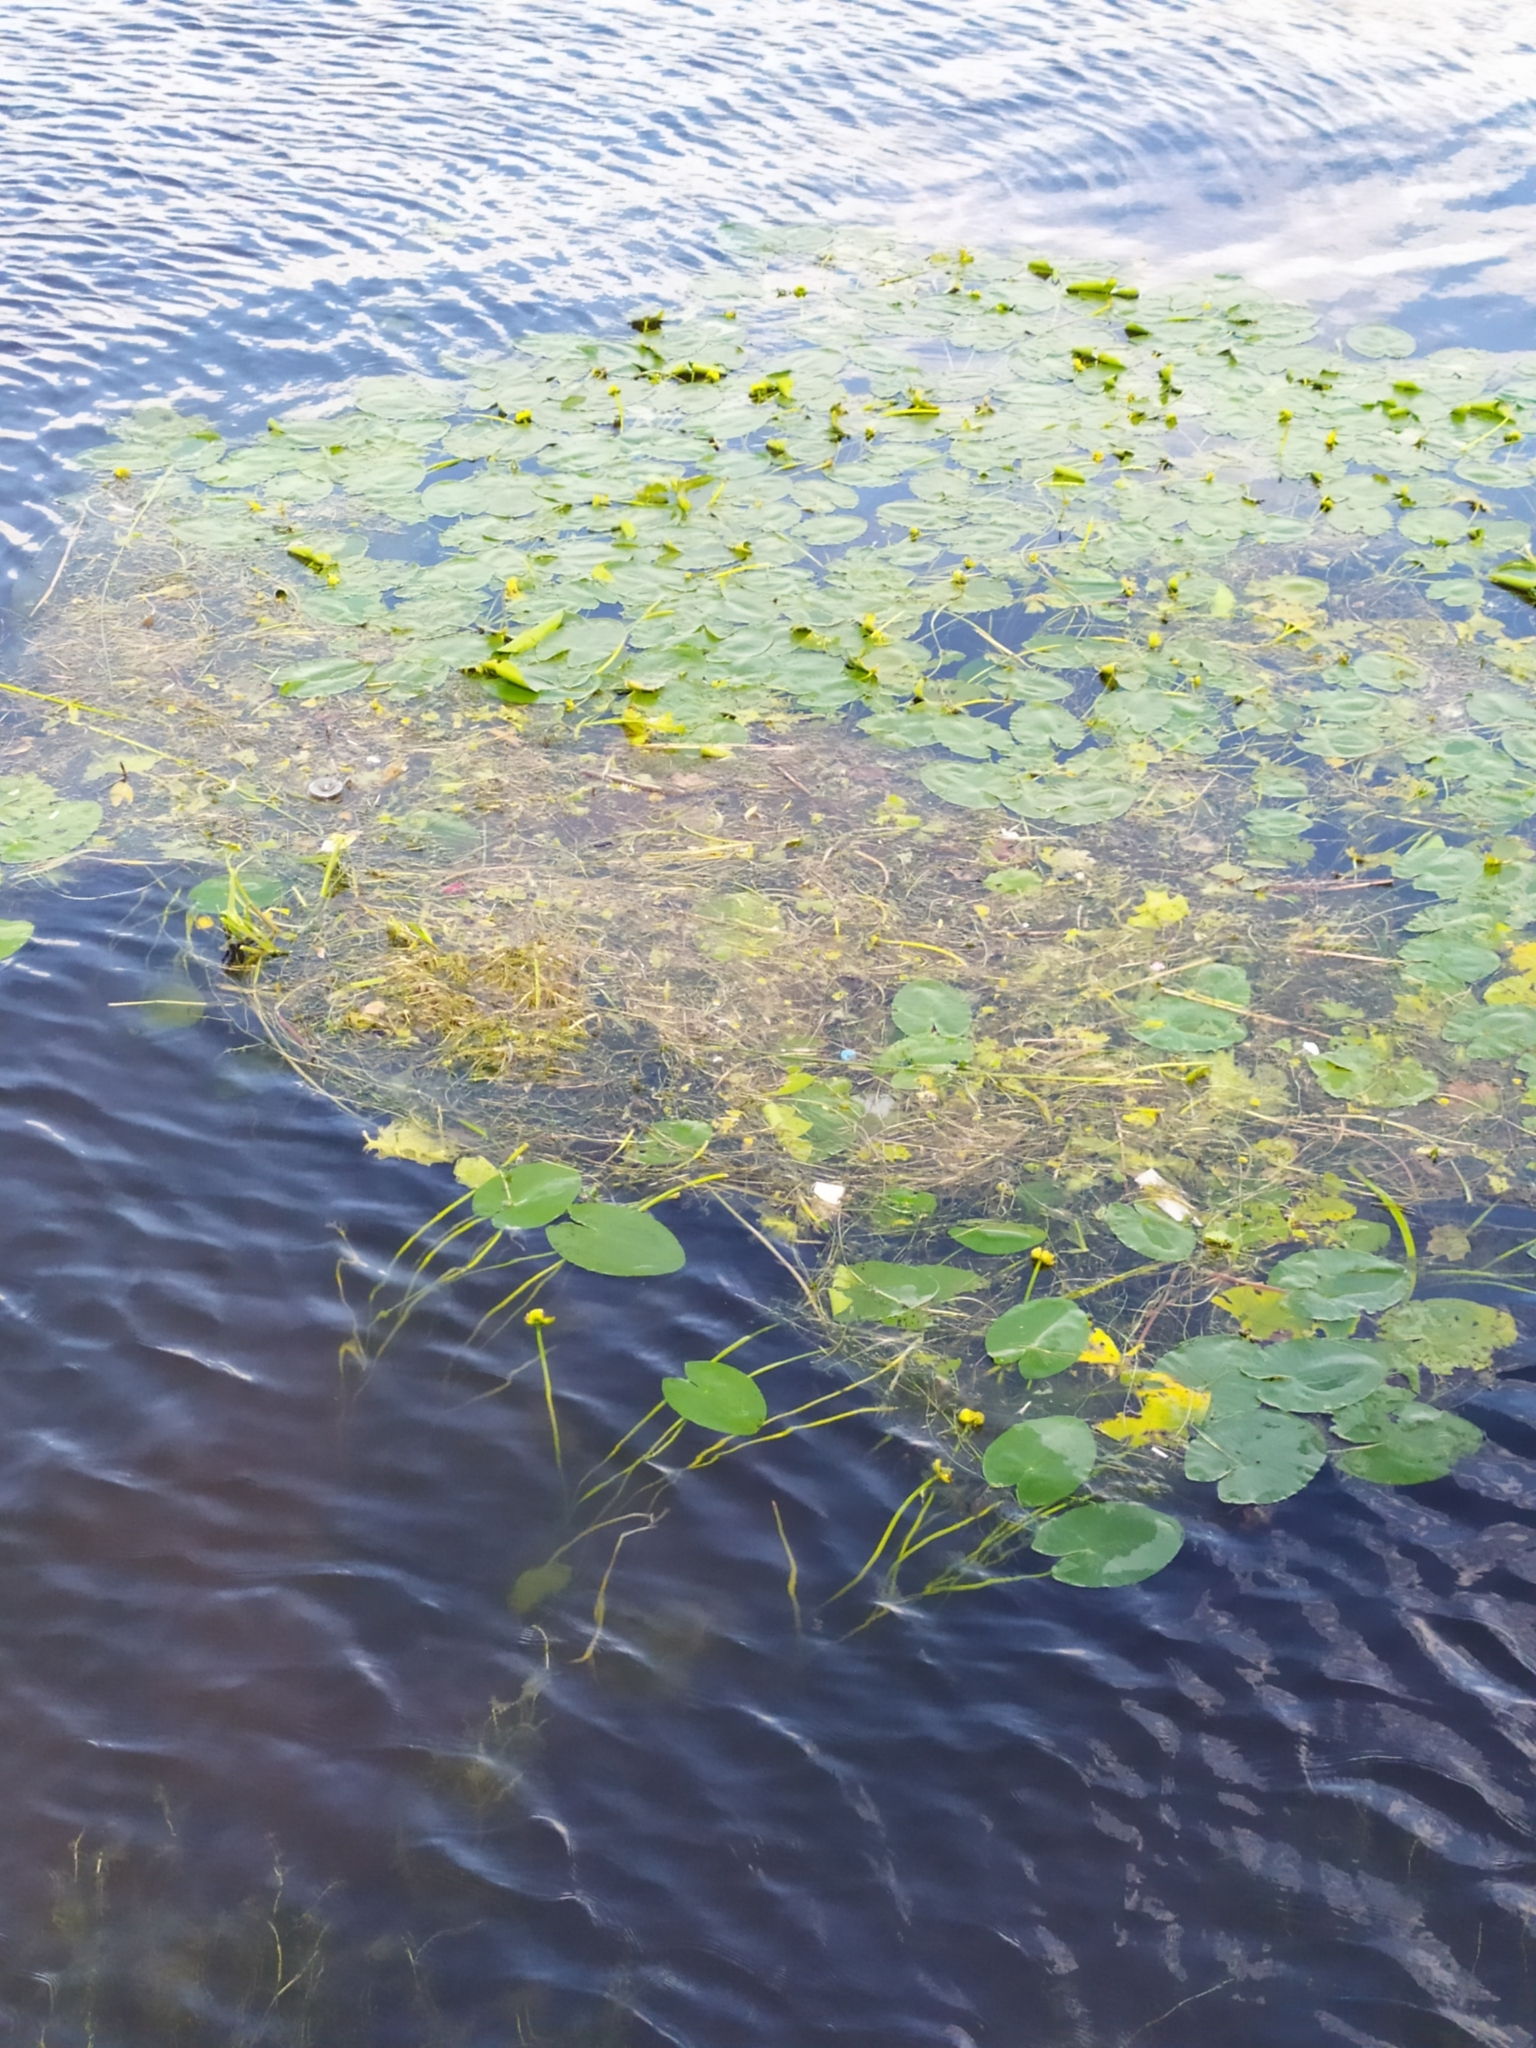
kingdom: Plantae
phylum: Tracheophyta
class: Magnoliopsida
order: Nymphaeales
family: Nymphaeaceae
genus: Nuphar
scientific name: Nuphar lutea
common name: Yellow water-lily
